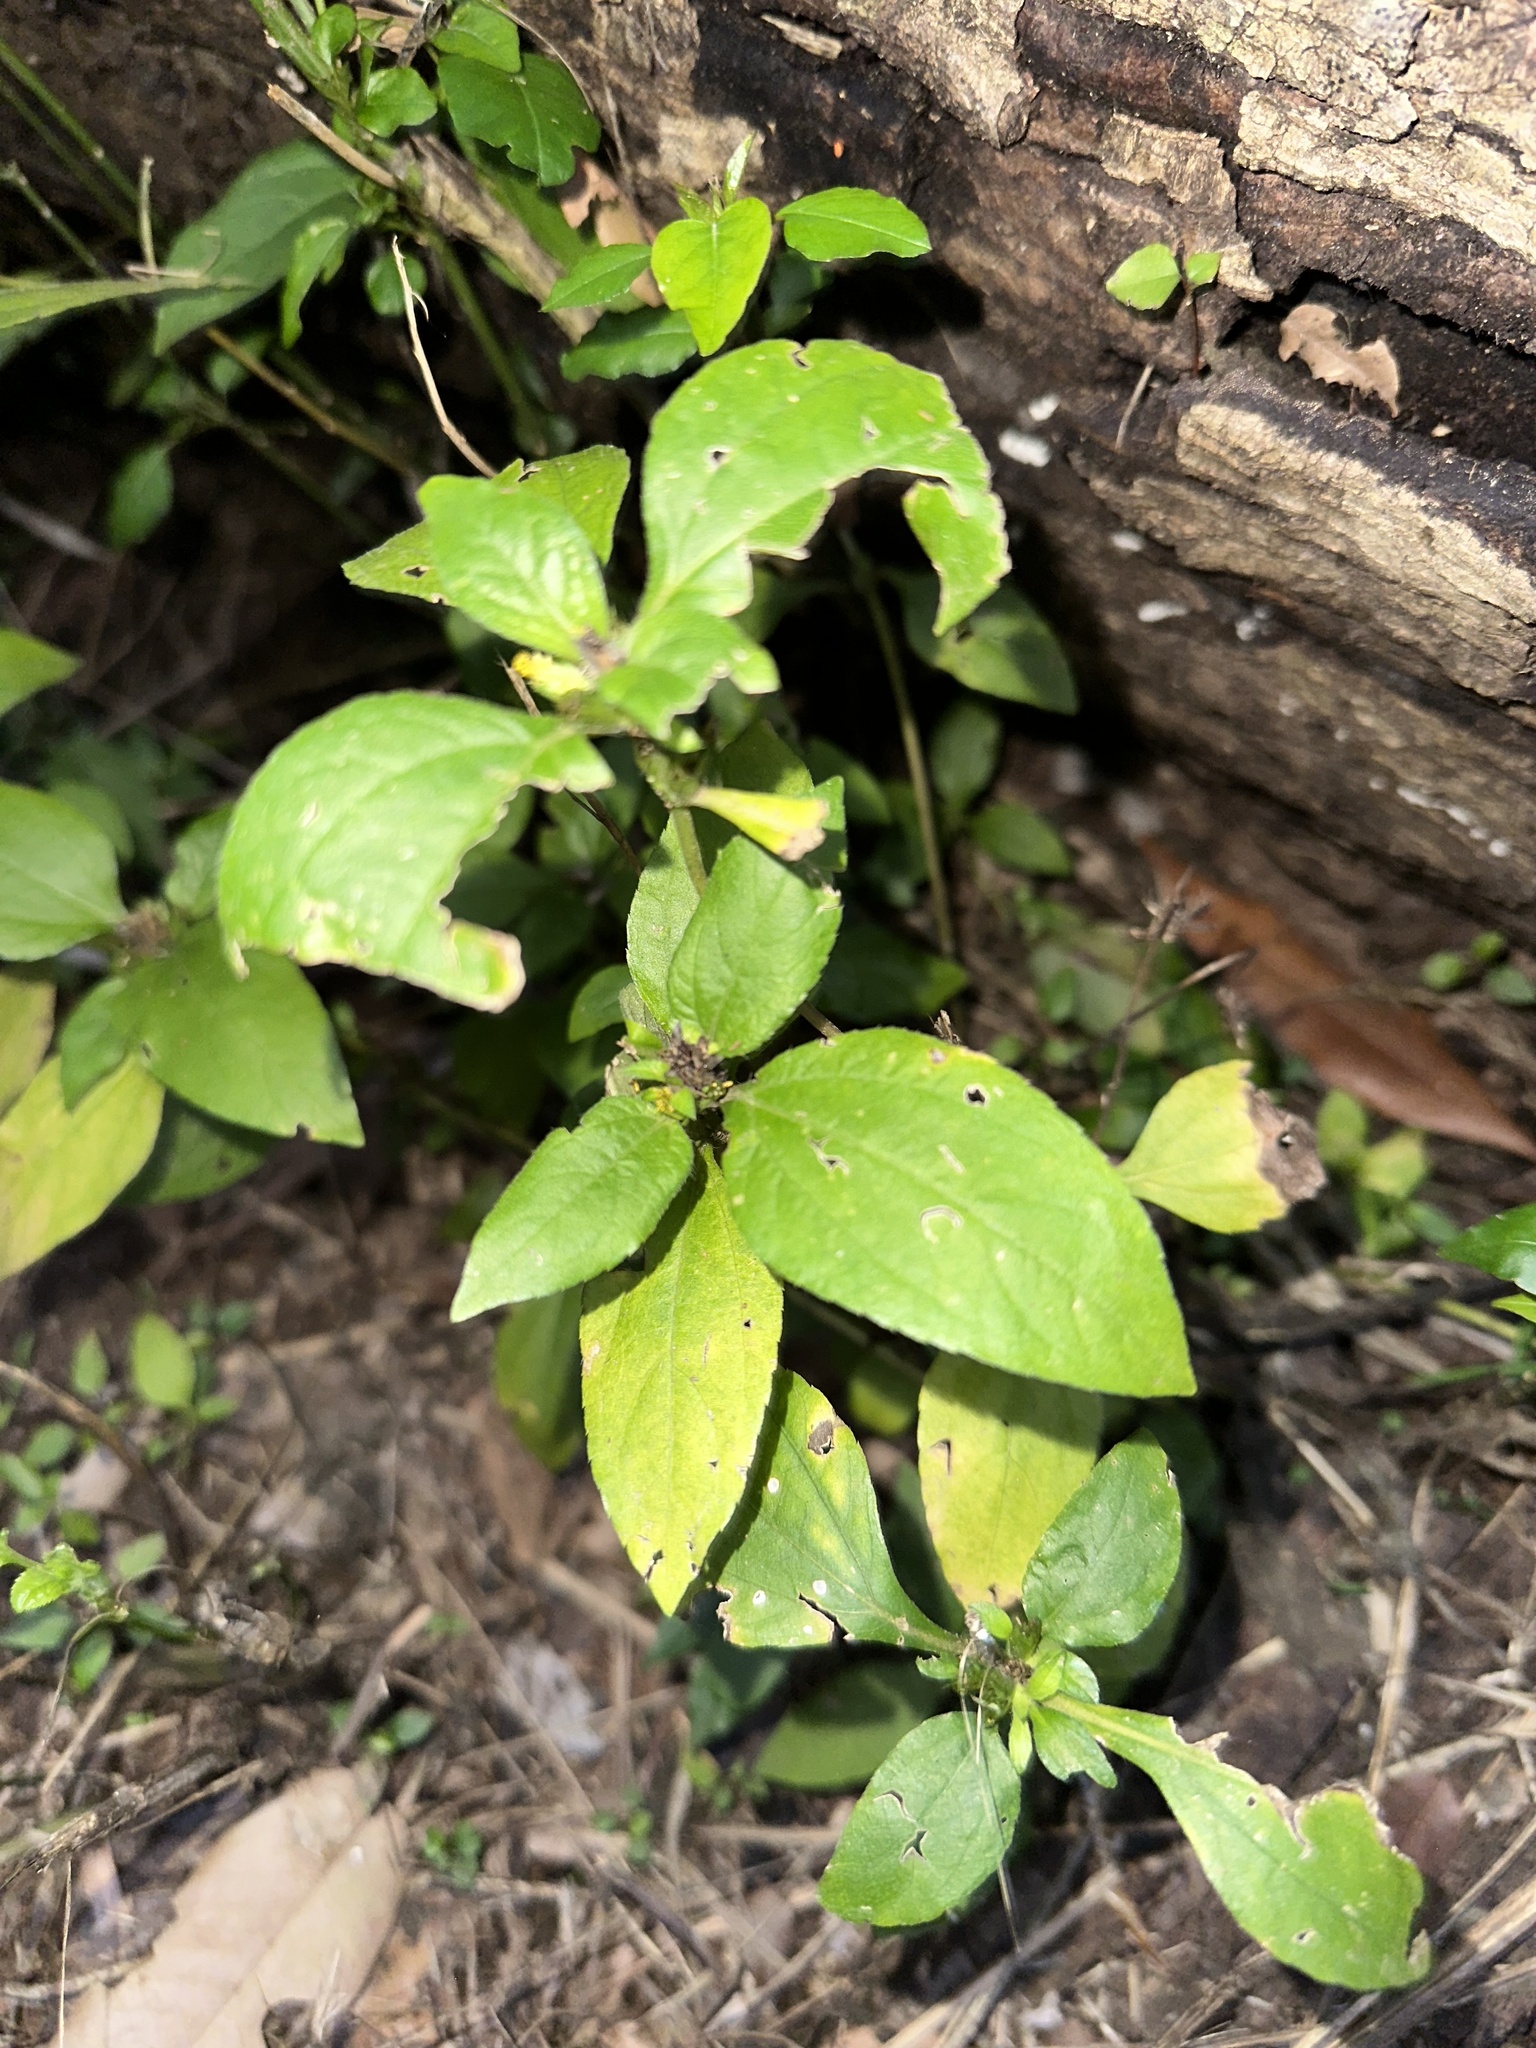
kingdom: Plantae
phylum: Tracheophyta
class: Magnoliopsida
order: Asterales
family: Asteraceae
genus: Synedrella
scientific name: Synedrella nodiflora
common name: Nodeweed
